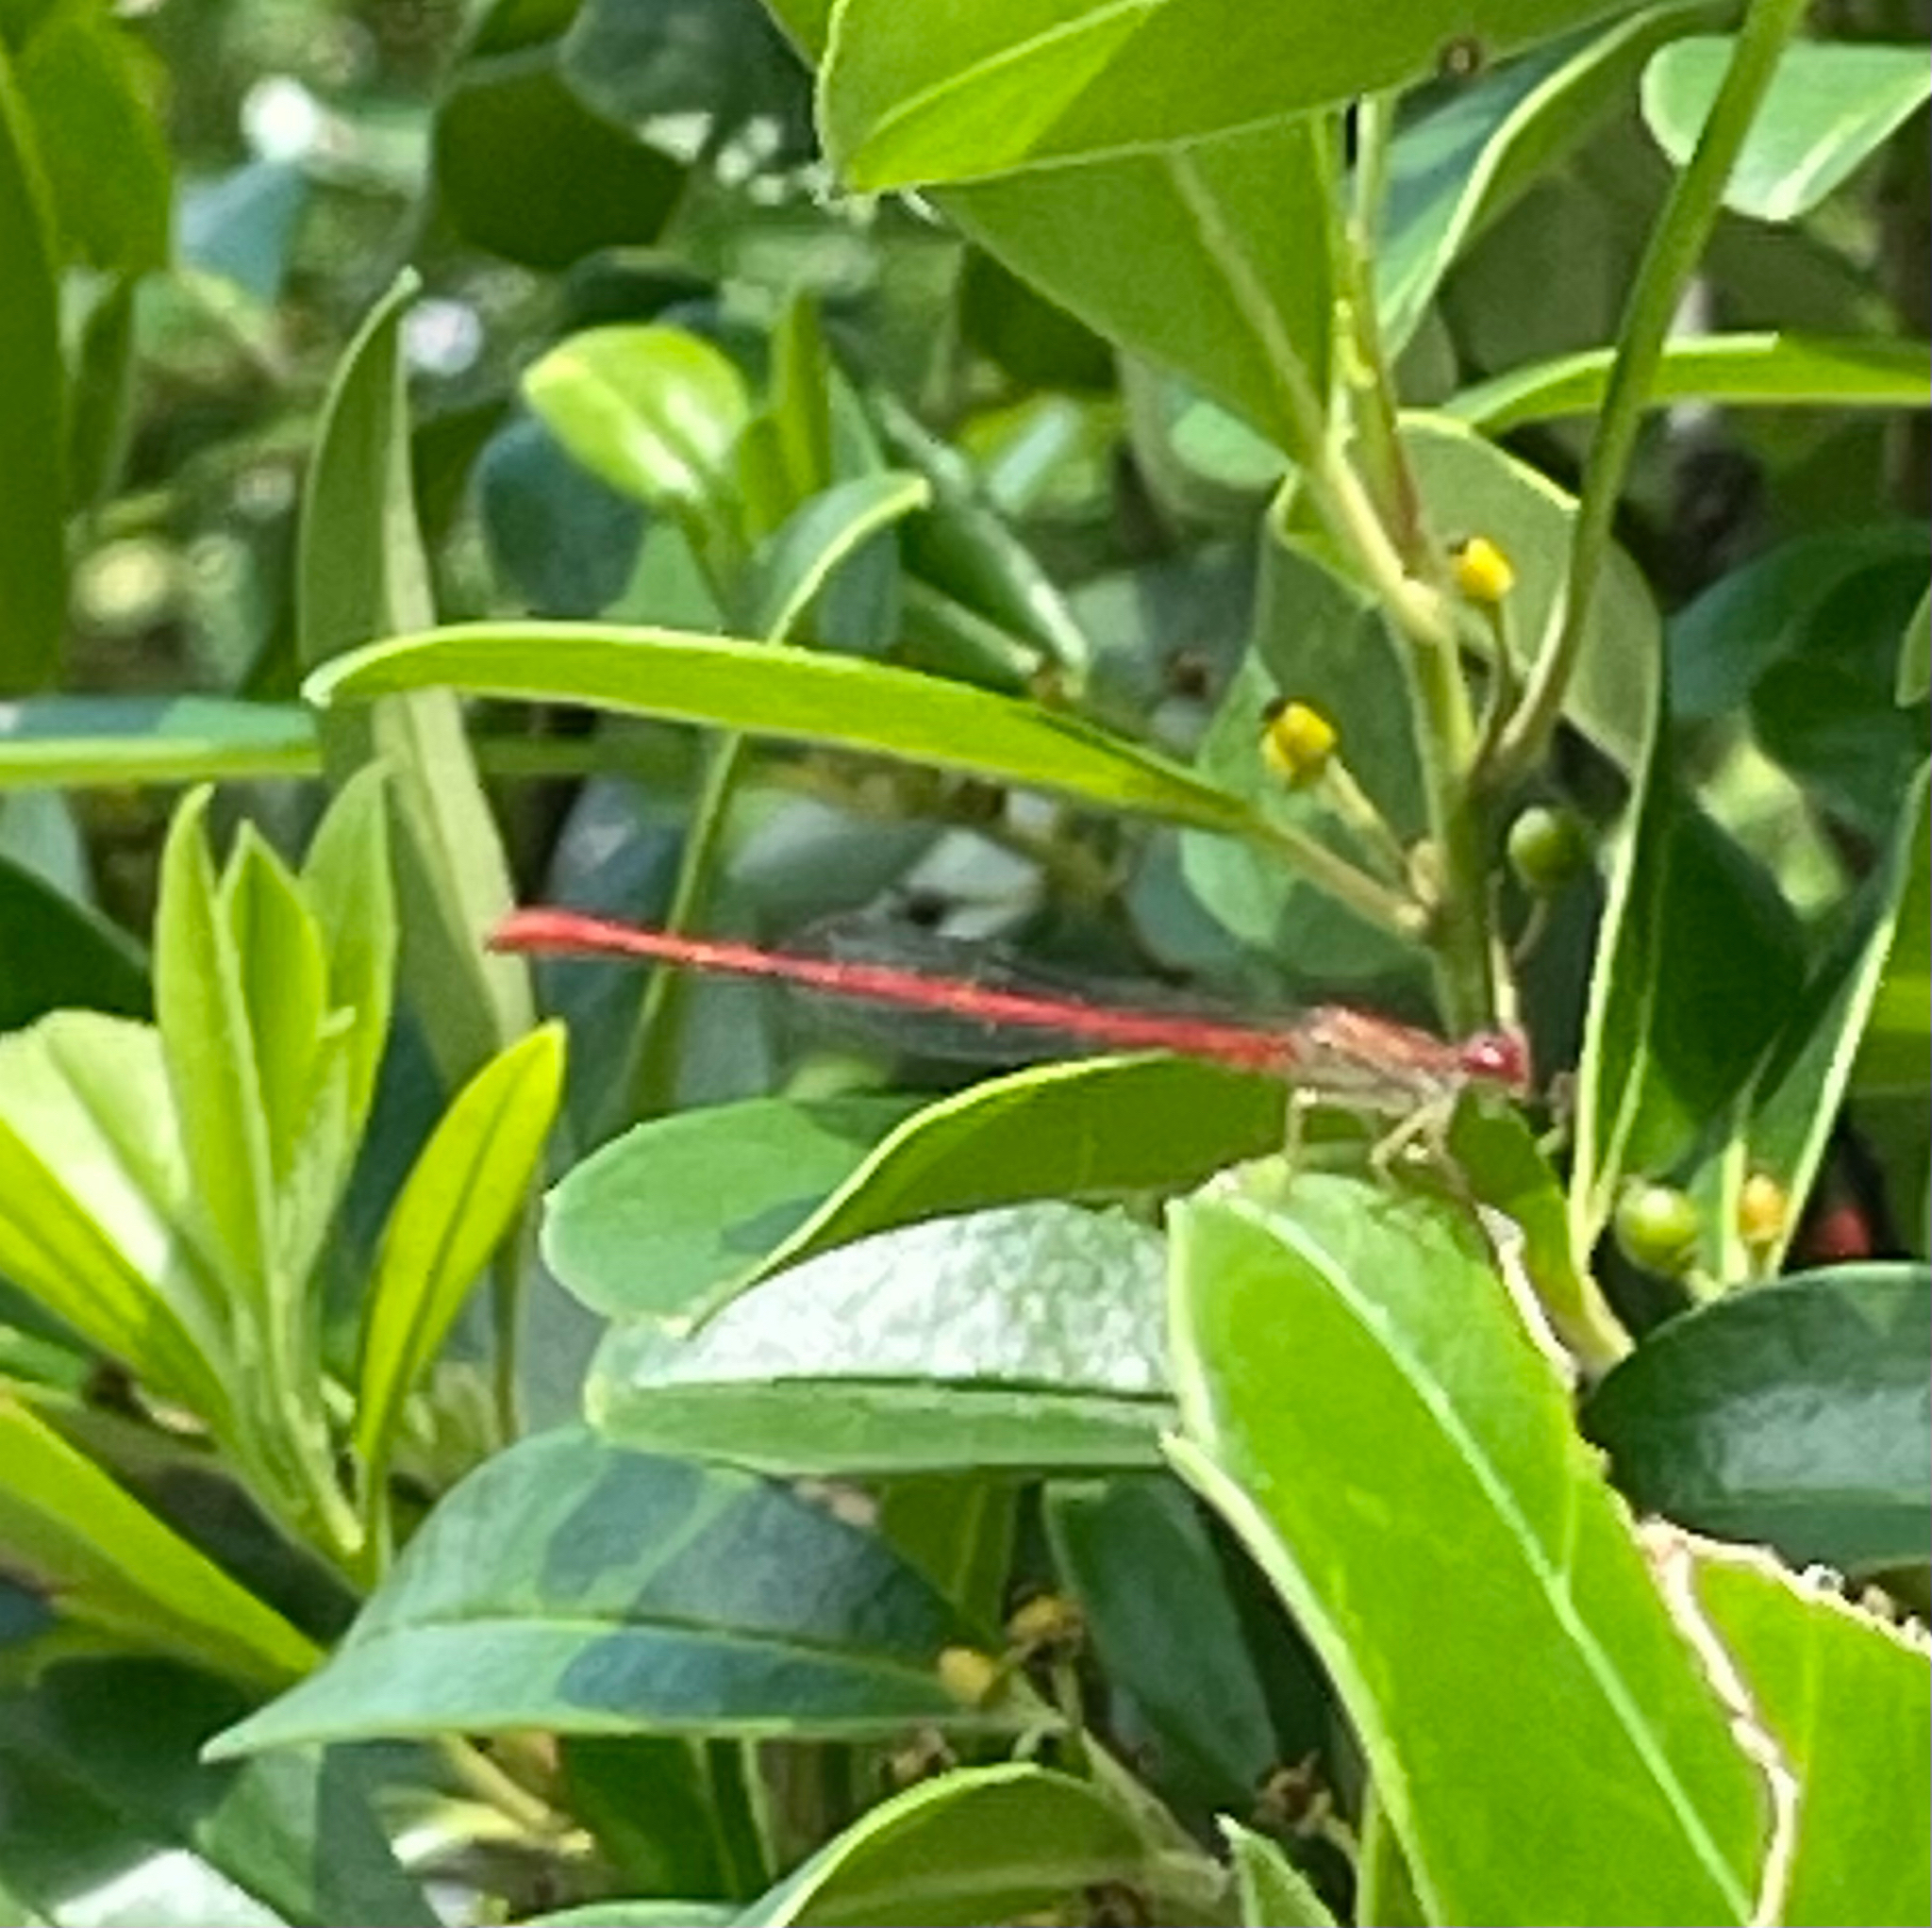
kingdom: Animalia
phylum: Arthropoda
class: Insecta
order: Odonata
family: Coenagrionidae
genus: Telebasis
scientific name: Telebasis byersi
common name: Duckweed firetail
